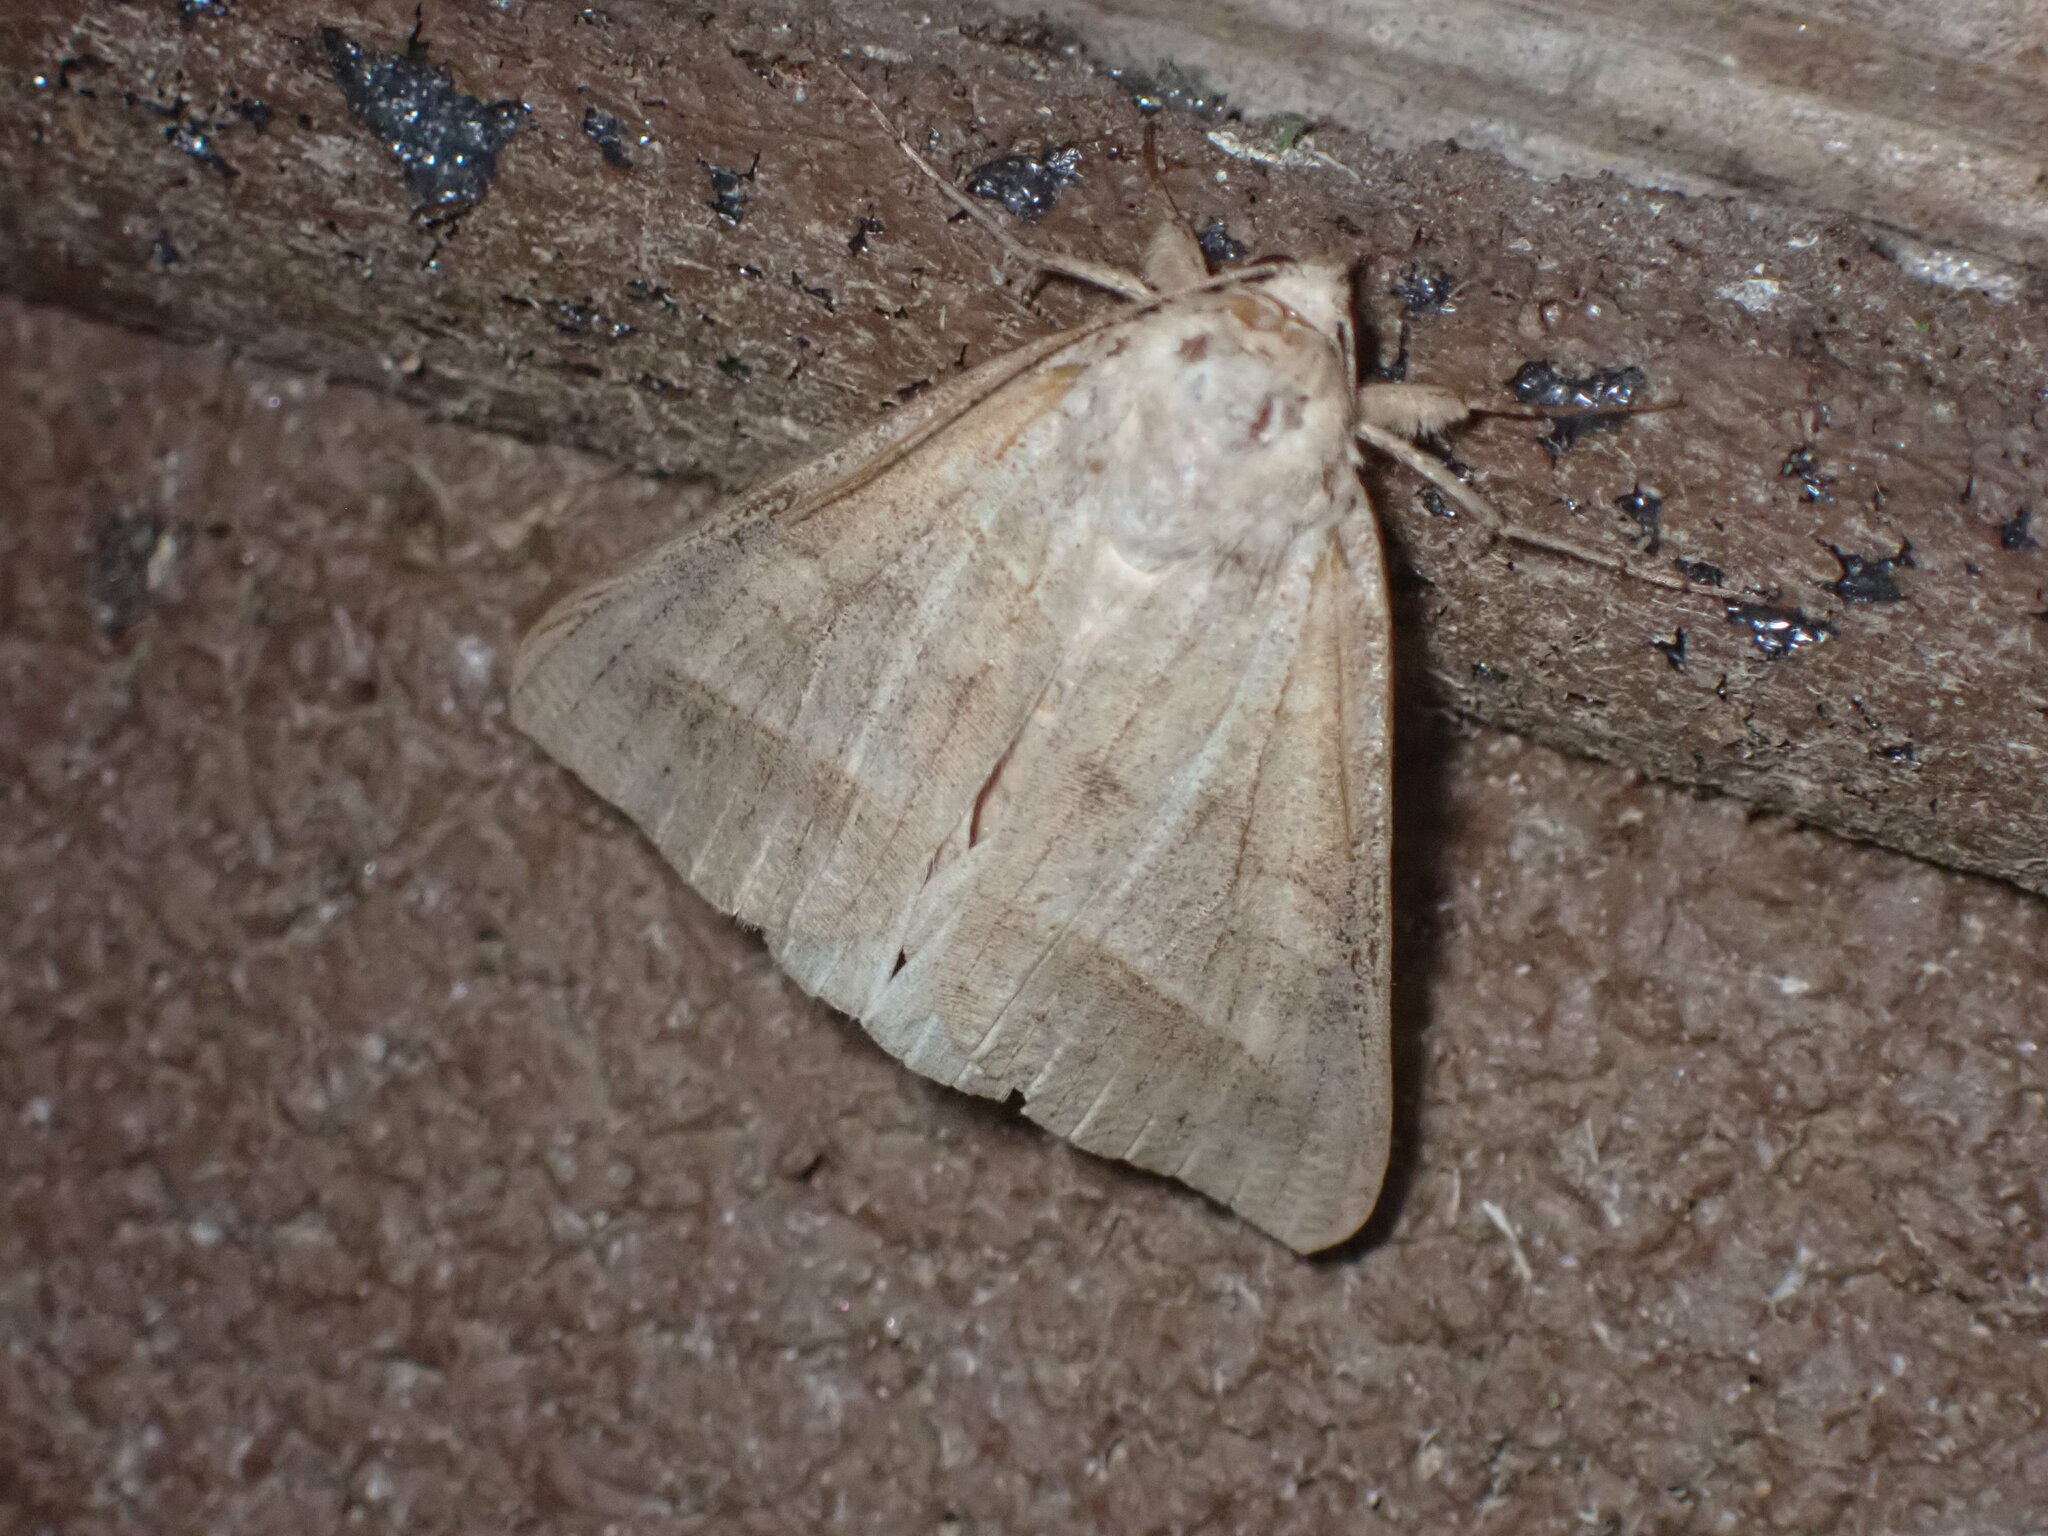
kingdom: Animalia
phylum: Arthropoda
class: Insecta
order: Lepidoptera
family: Erebidae
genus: Mocis
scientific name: Mocis marcida
